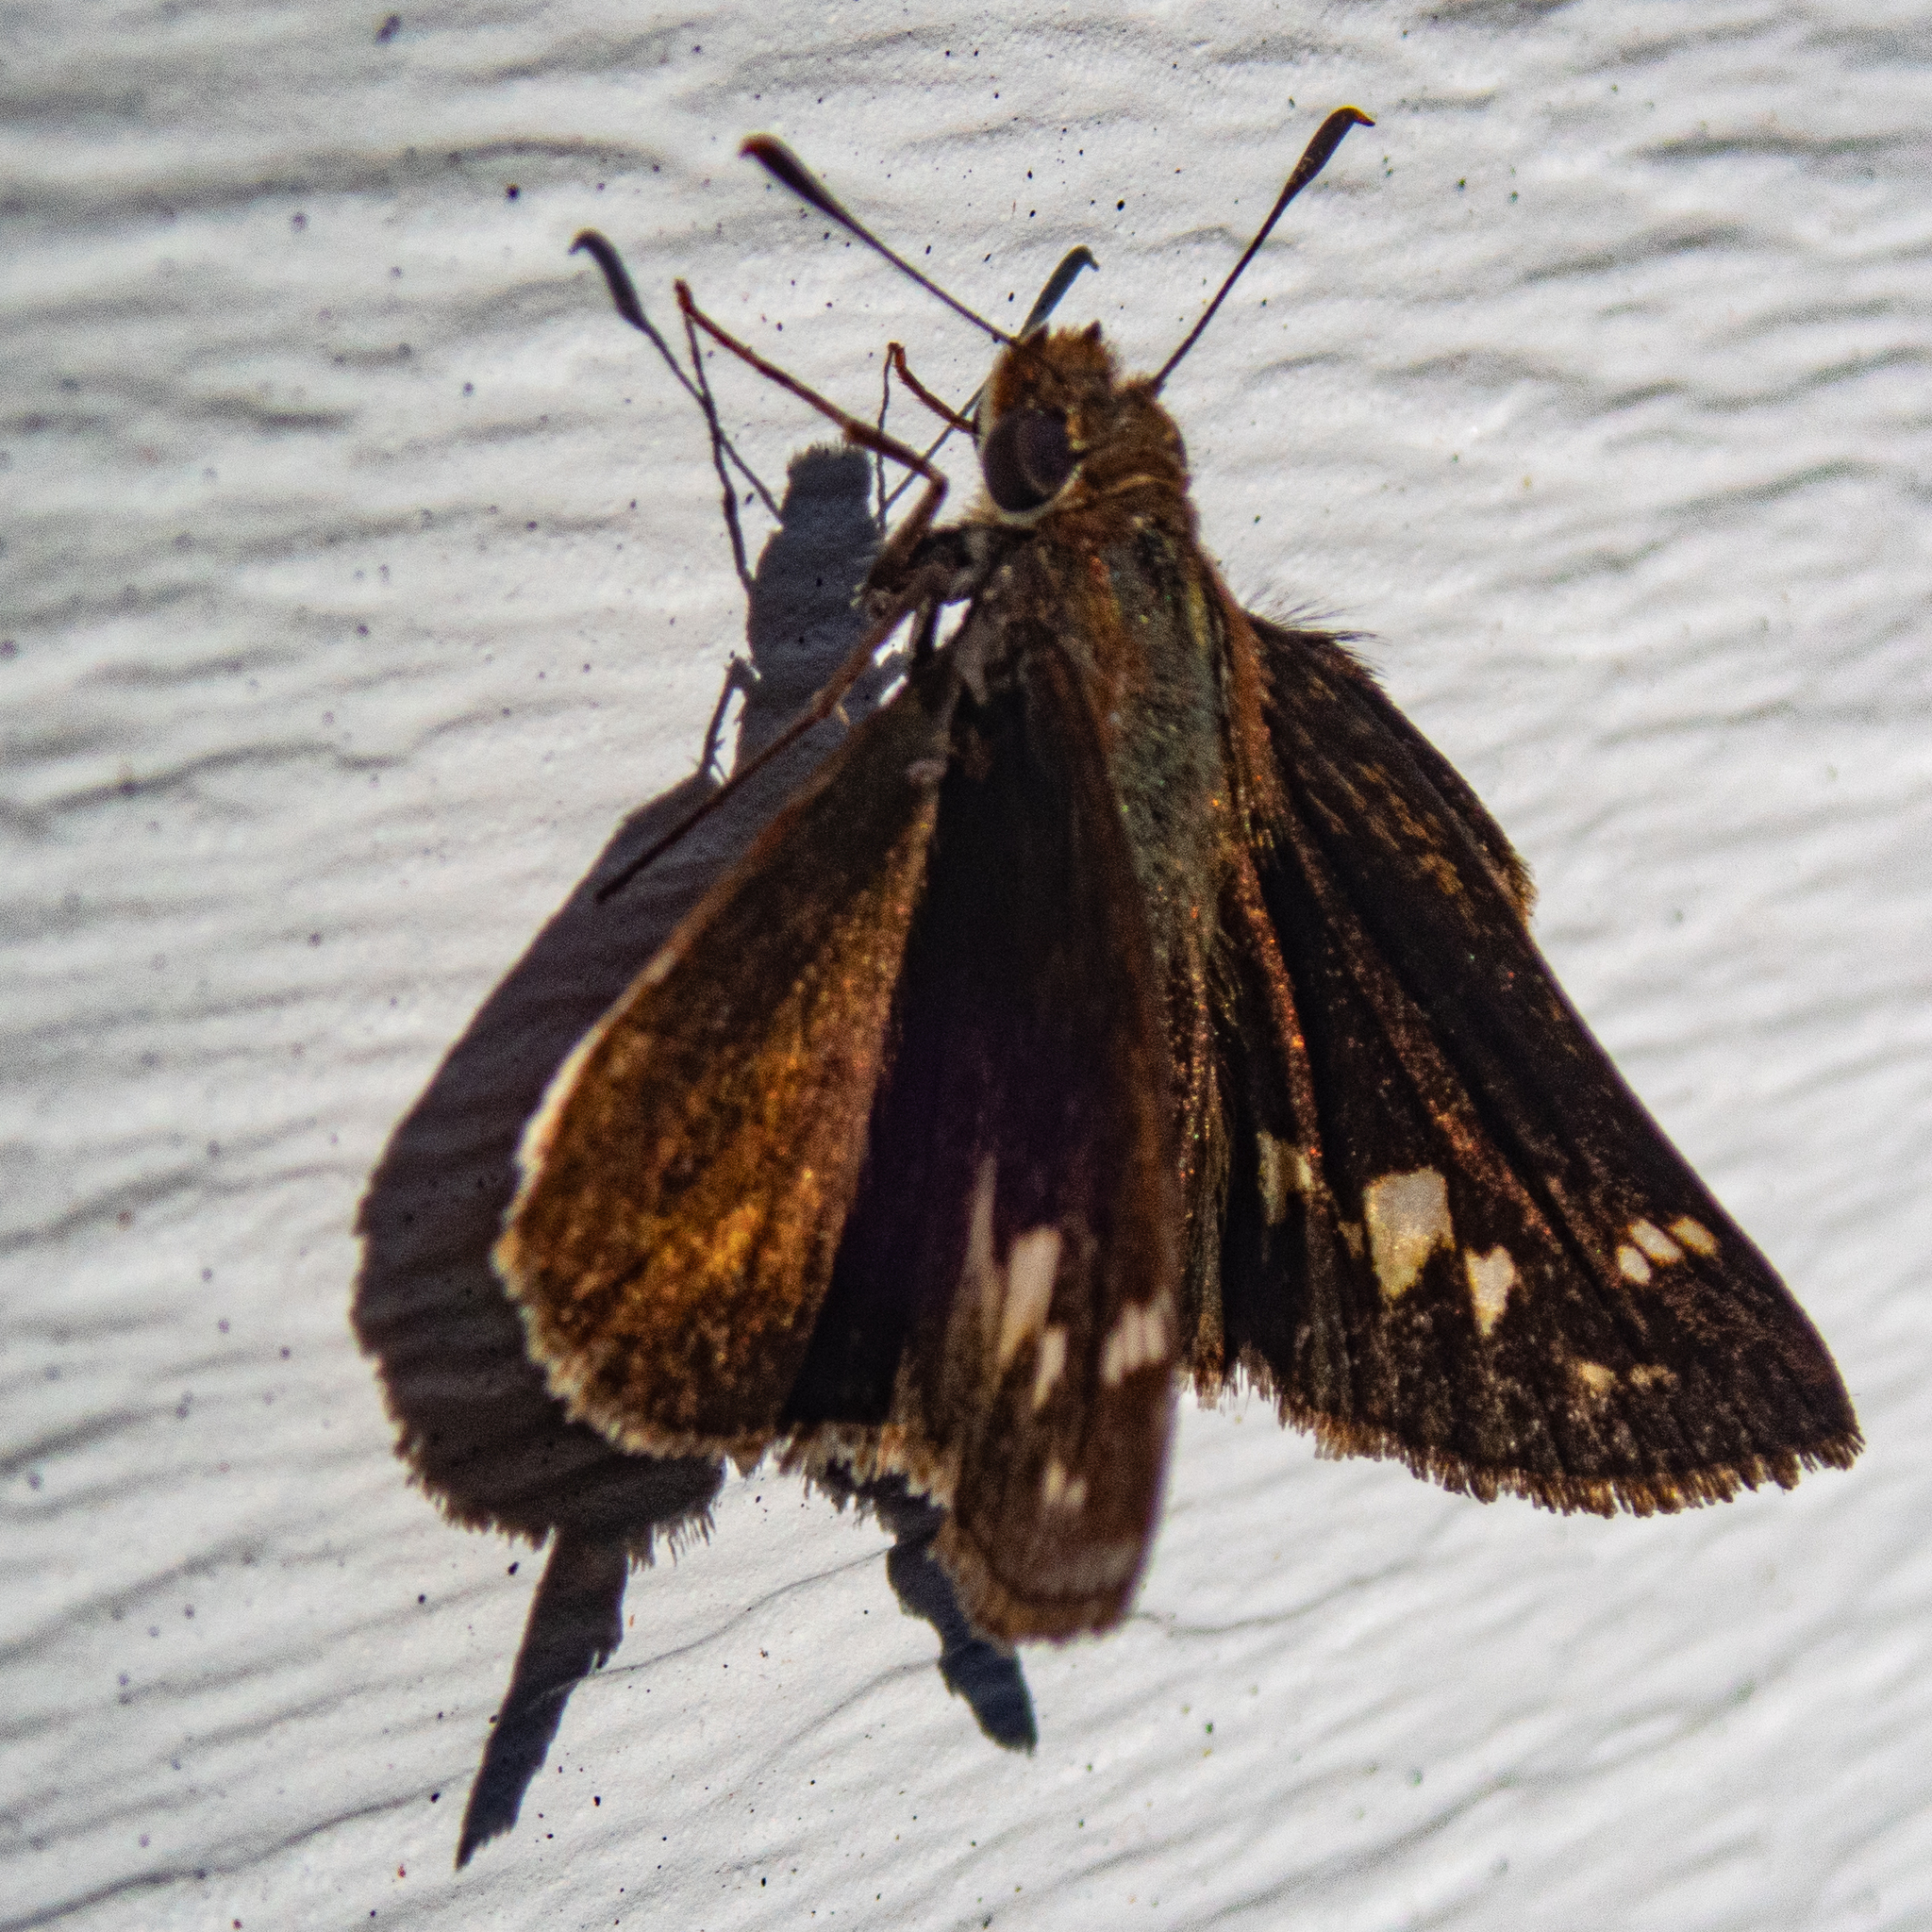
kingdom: Animalia
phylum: Arthropoda
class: Insecta
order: Lepidoptera
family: Hesperiidae
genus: Lon
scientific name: Lon zabulon
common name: Zabulon skipper
